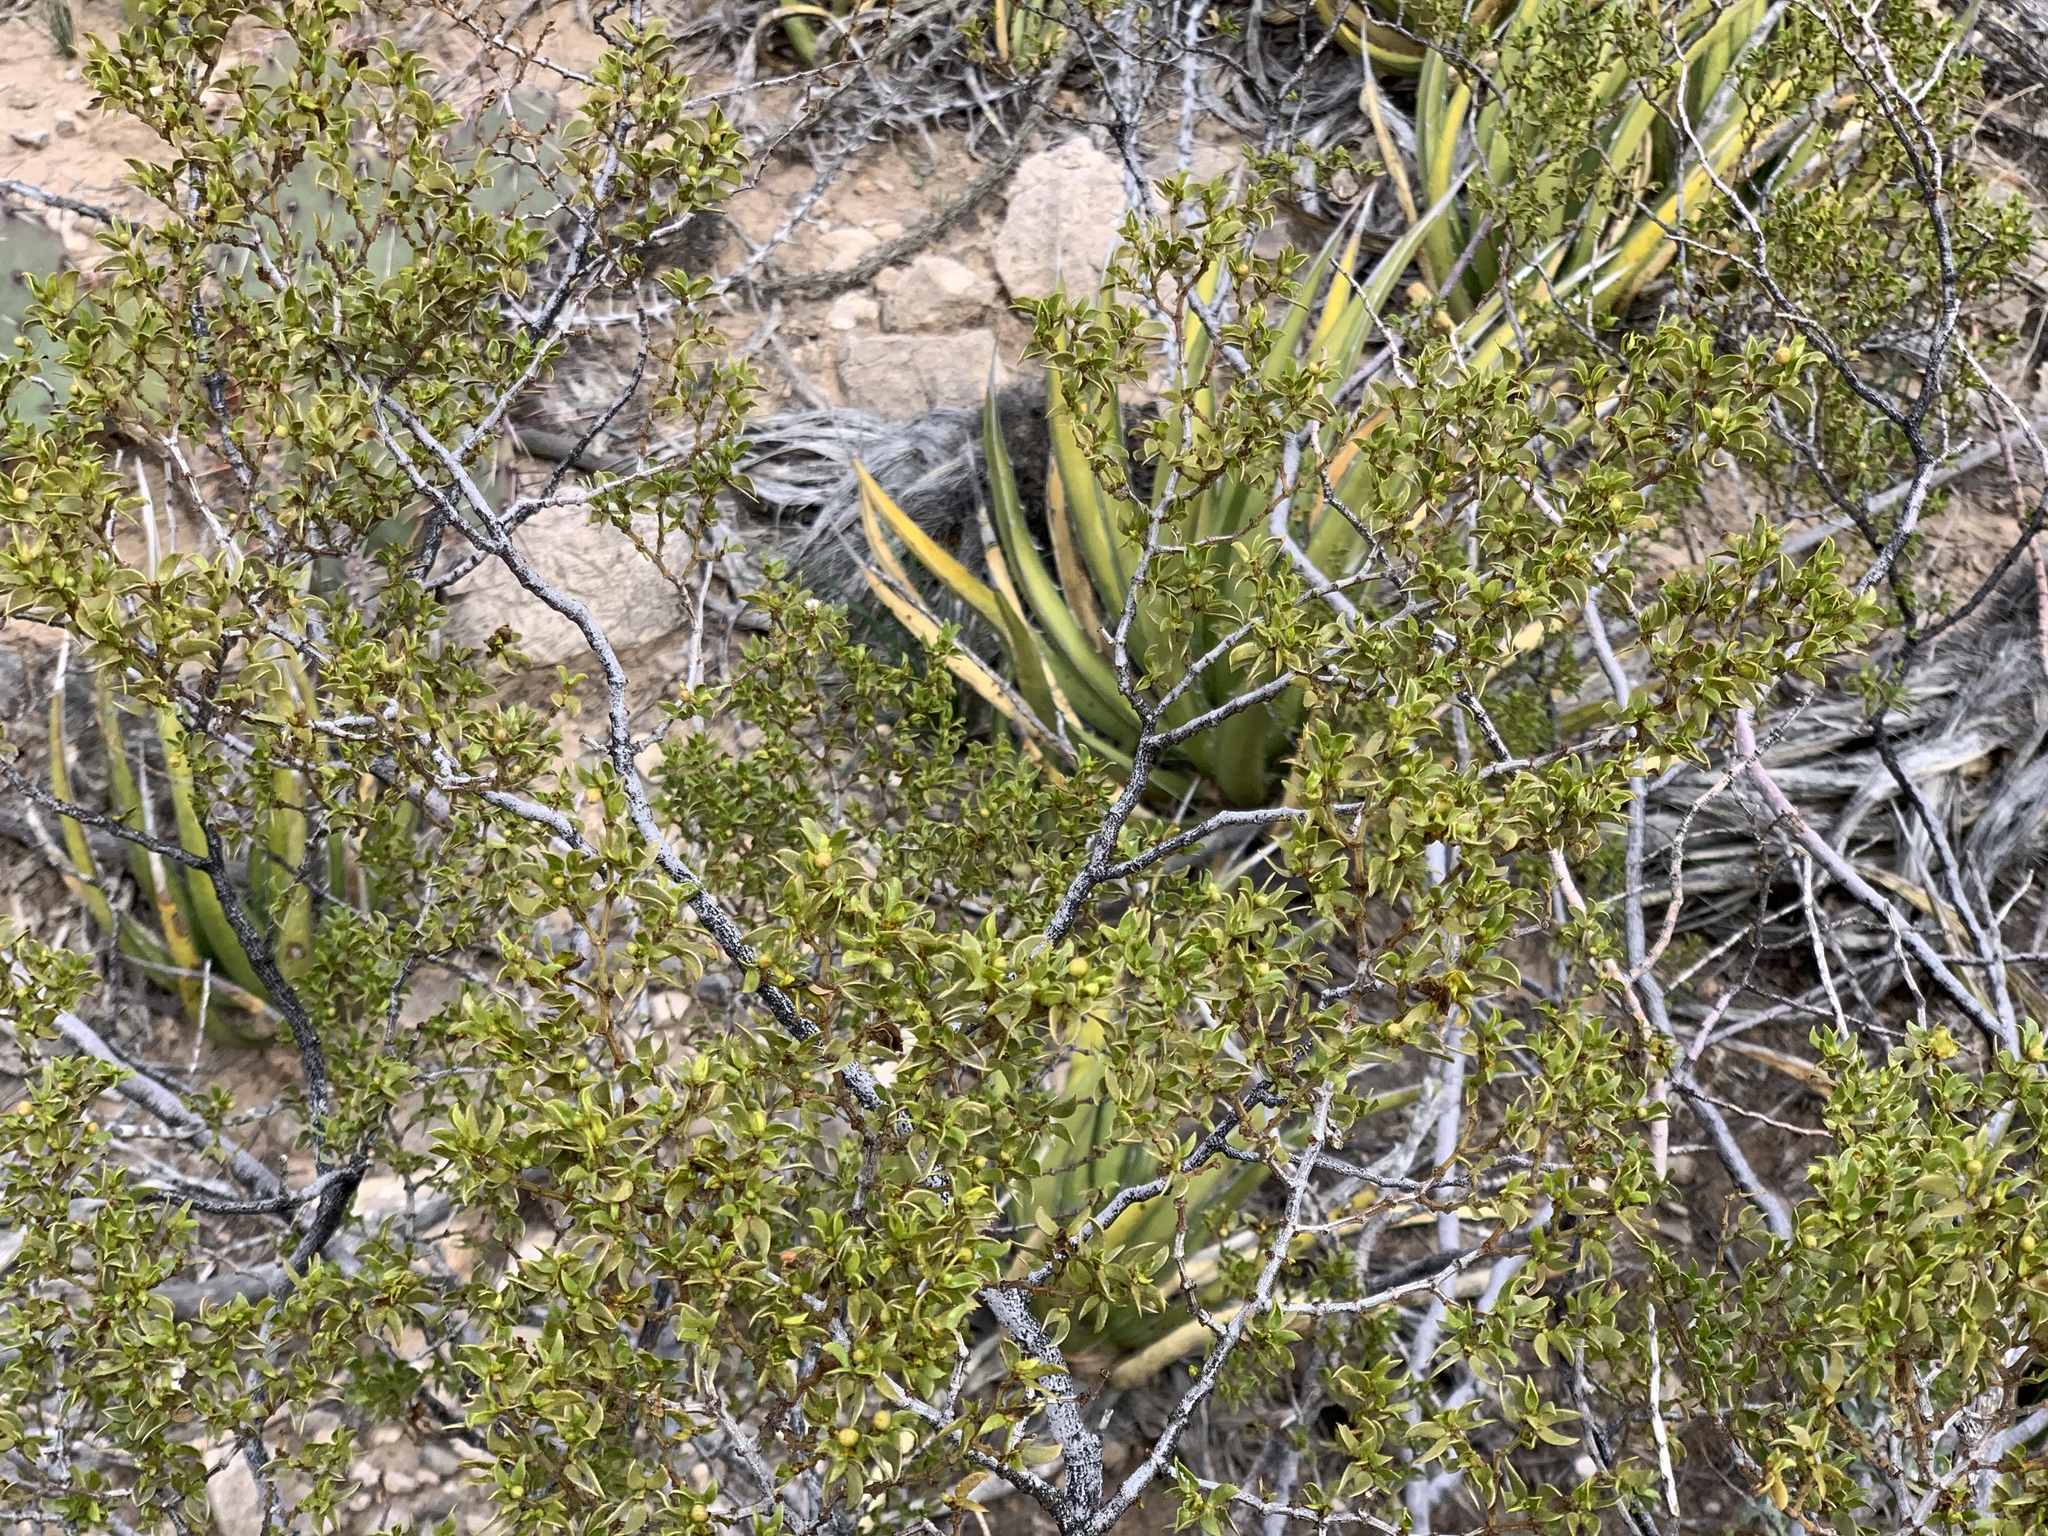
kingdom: Plantae
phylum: Tracheophyta
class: Magnoliopsida
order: Zygophyllales
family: Zygophyllaceae
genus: Larrea
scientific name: Larrea tridentata
